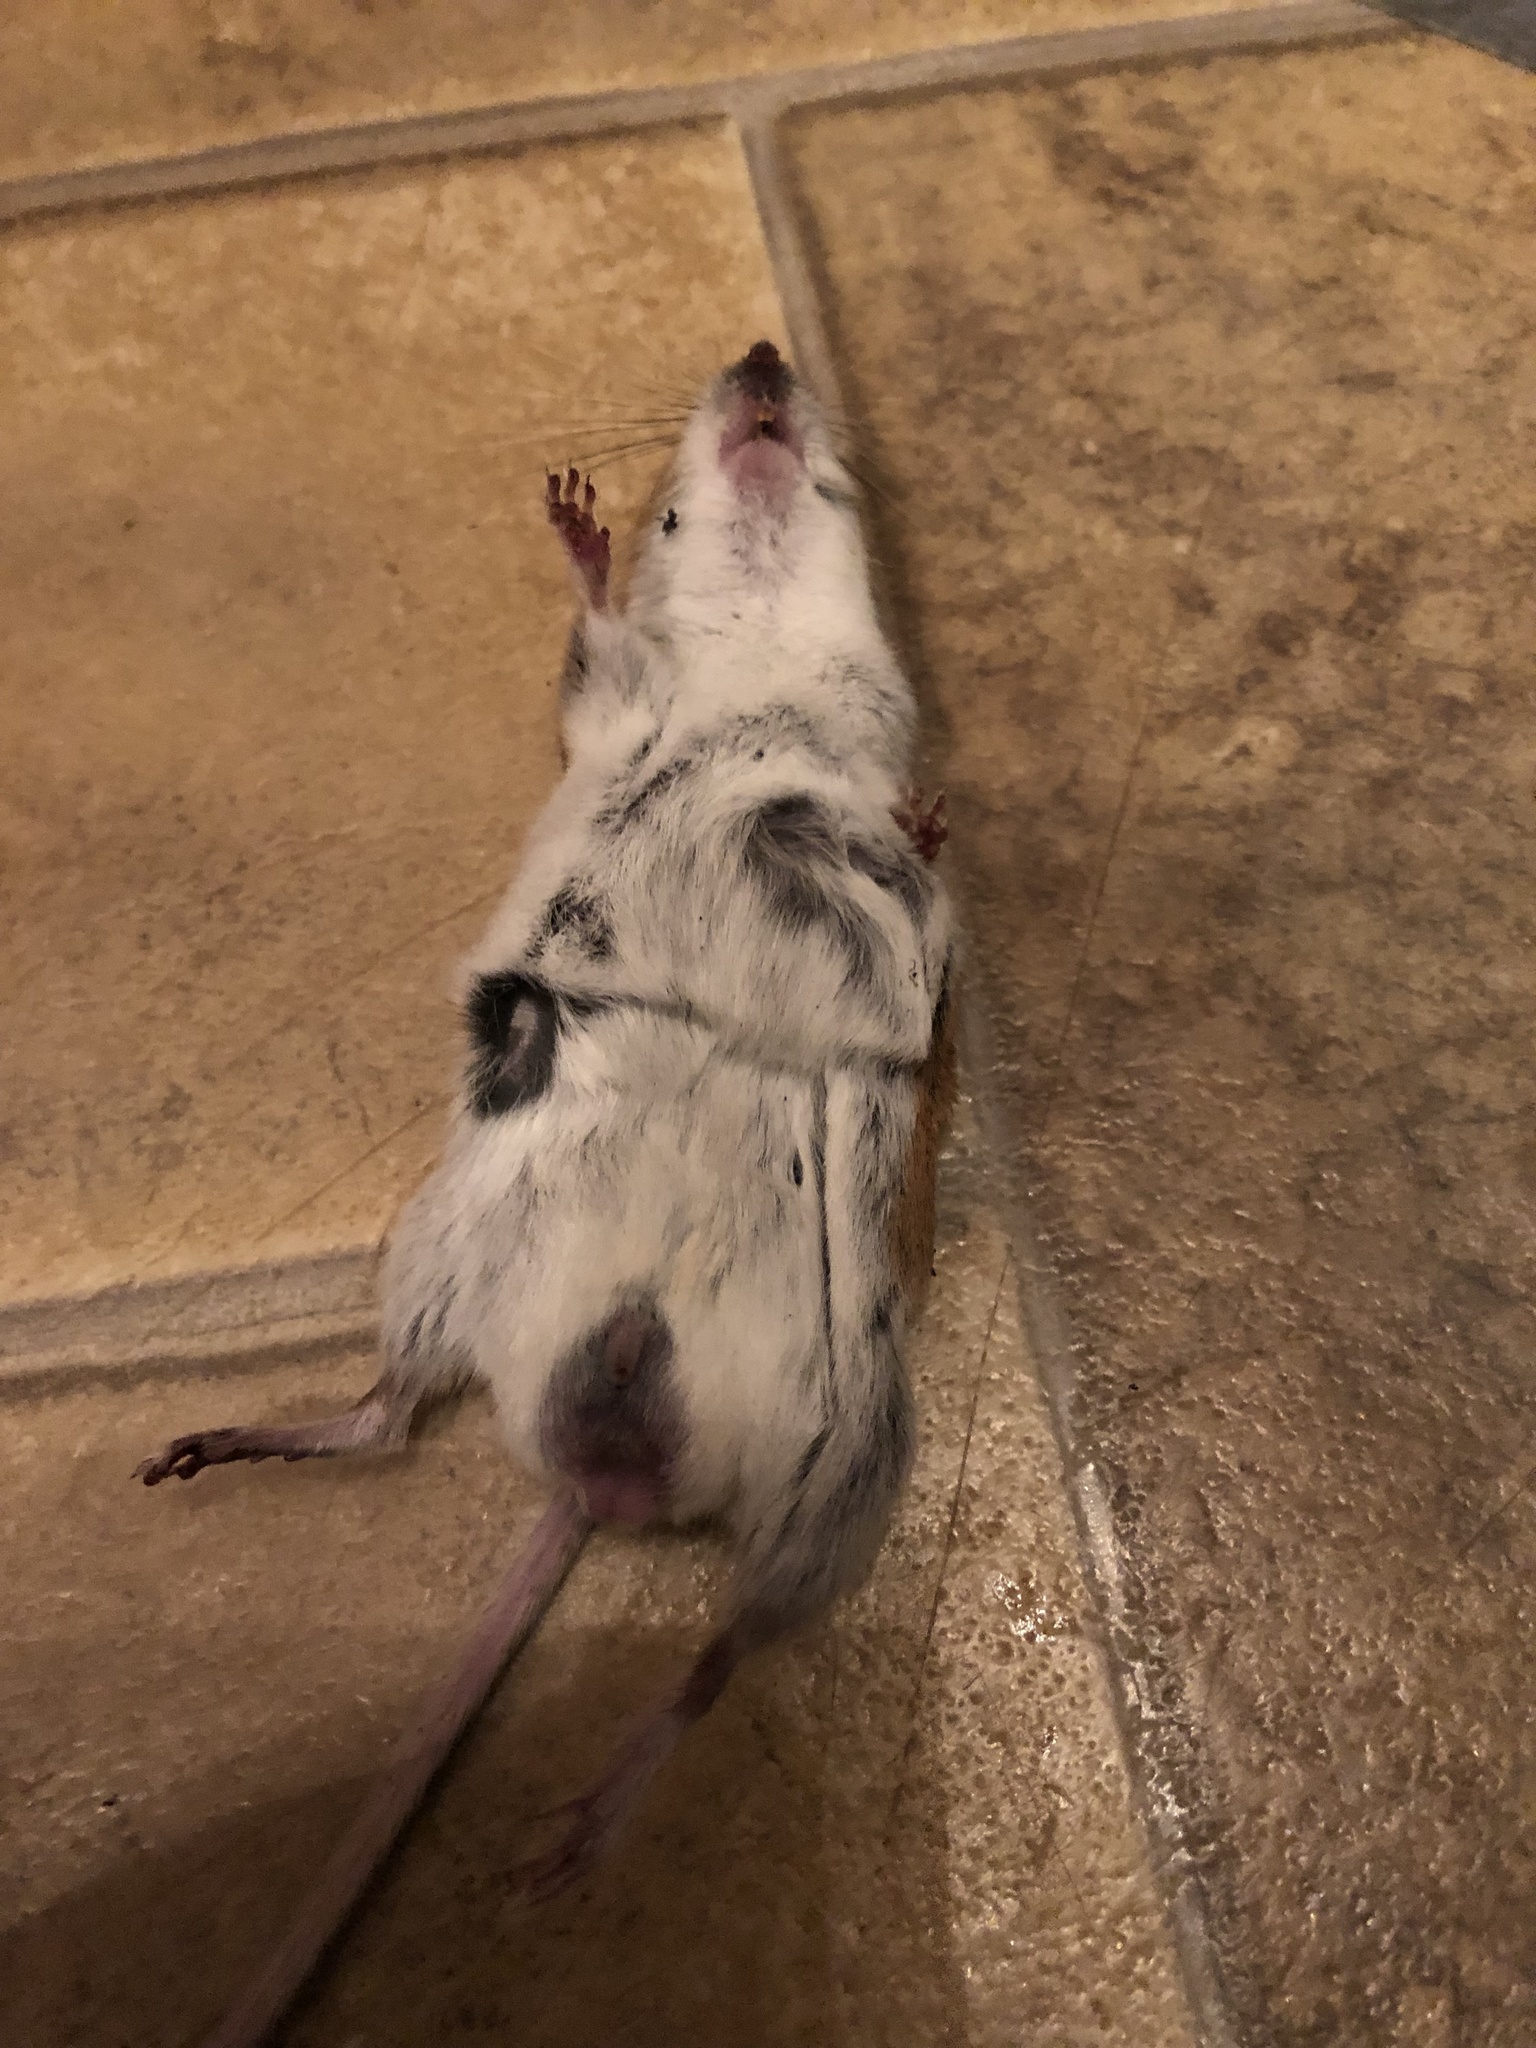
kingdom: Animalia
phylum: Chordata
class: Mammalia
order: Rodentia
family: Cricetidae
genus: Peromyscus
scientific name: Peromyscus maniculatus
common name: Deer mouse
